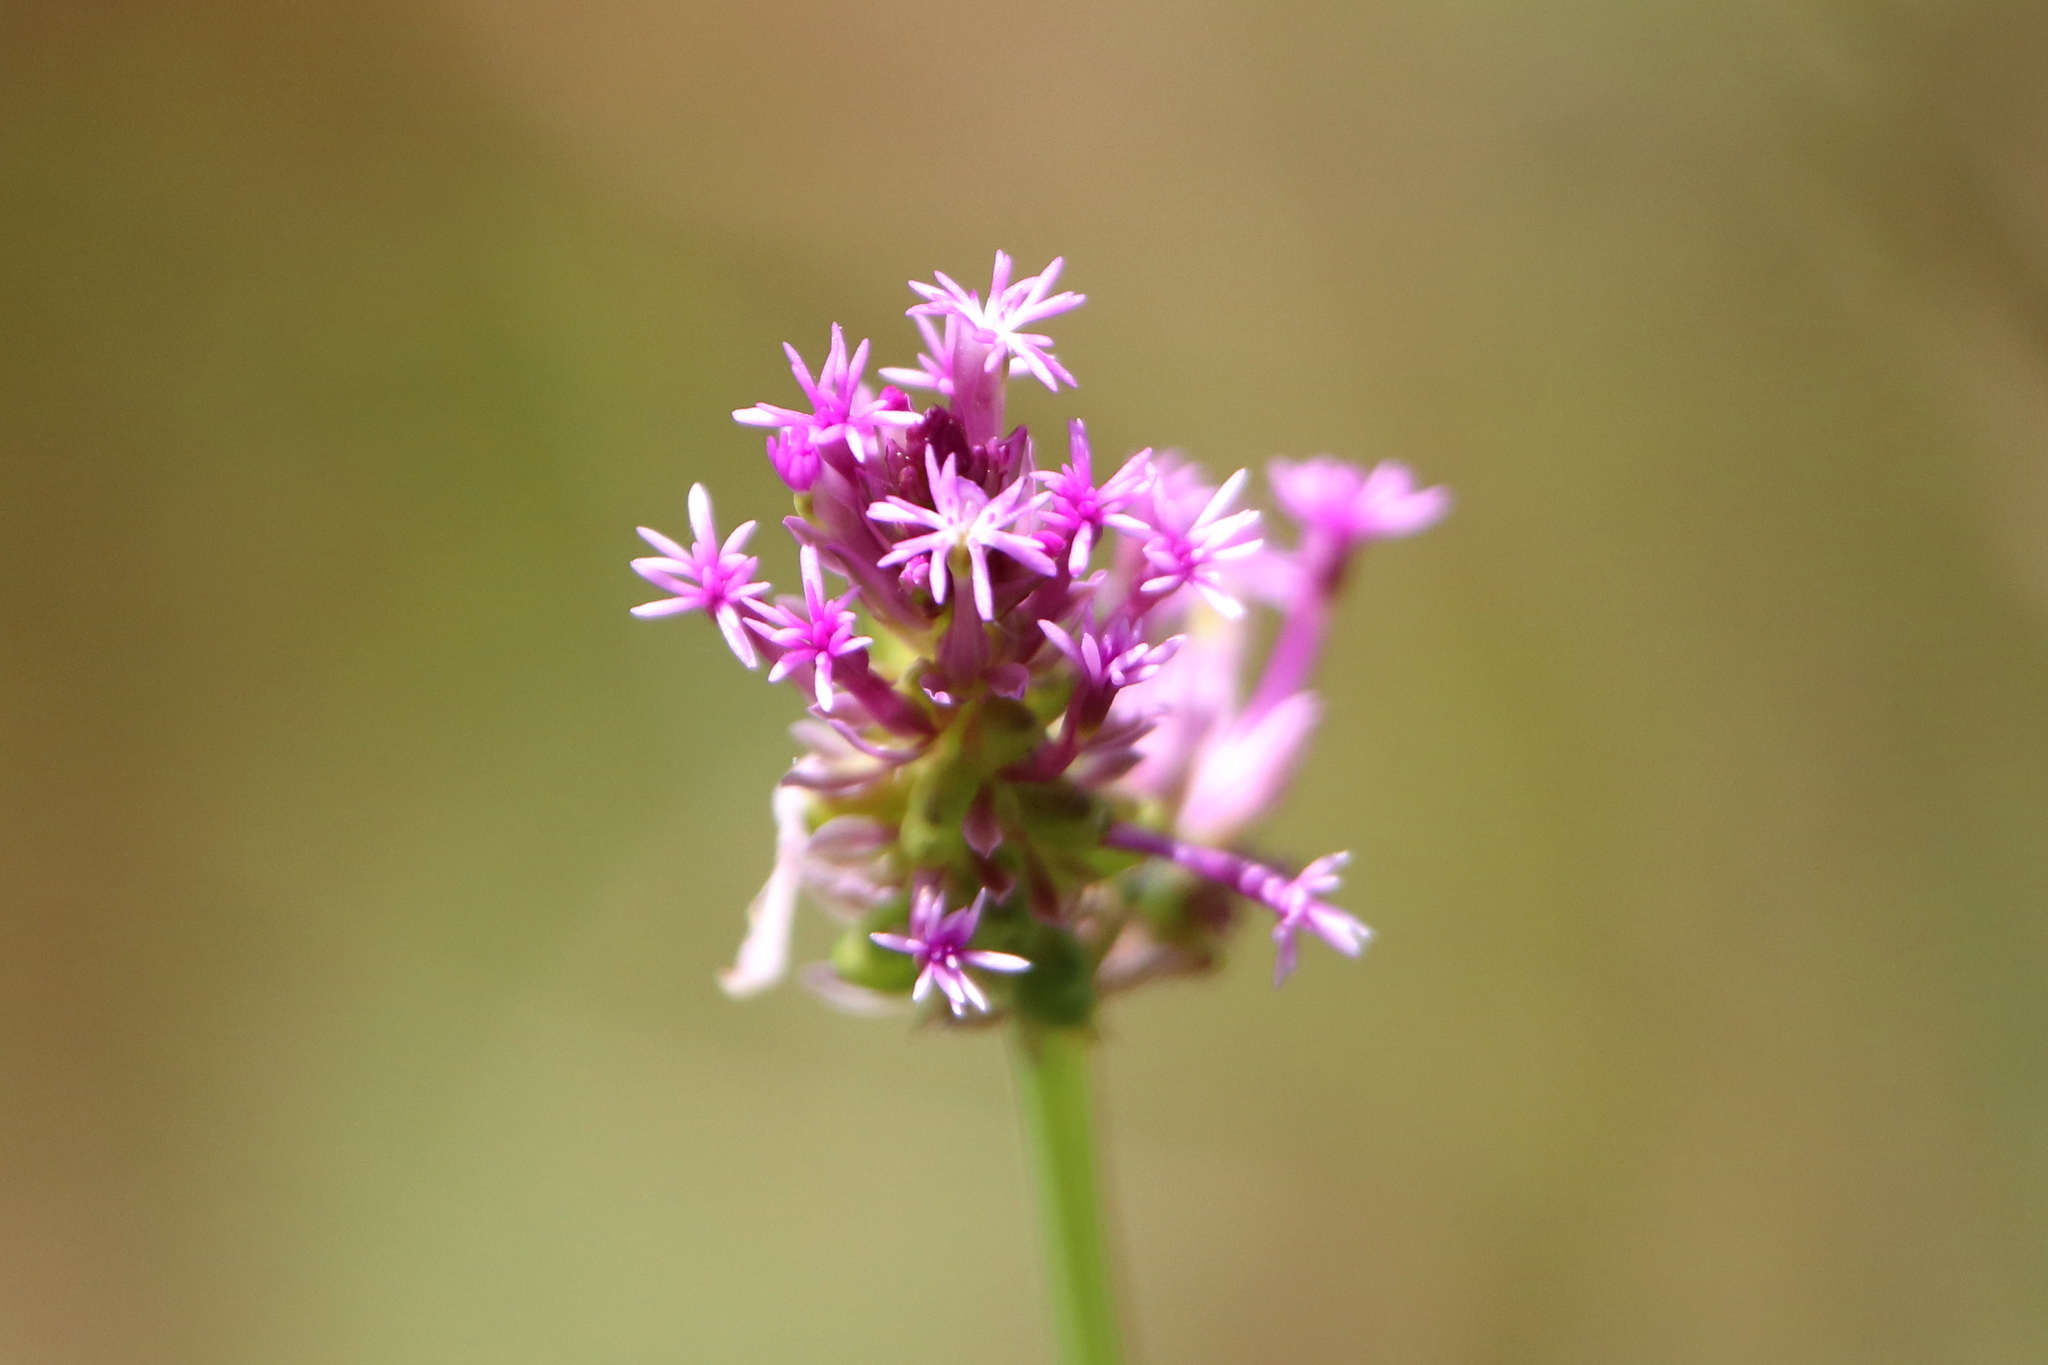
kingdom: Plantae
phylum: Tracheophyta
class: Magnoliopsida
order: Fabales
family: Polygalaceae
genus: Polygala
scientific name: Polygala incarnata
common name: Pink milkwort
